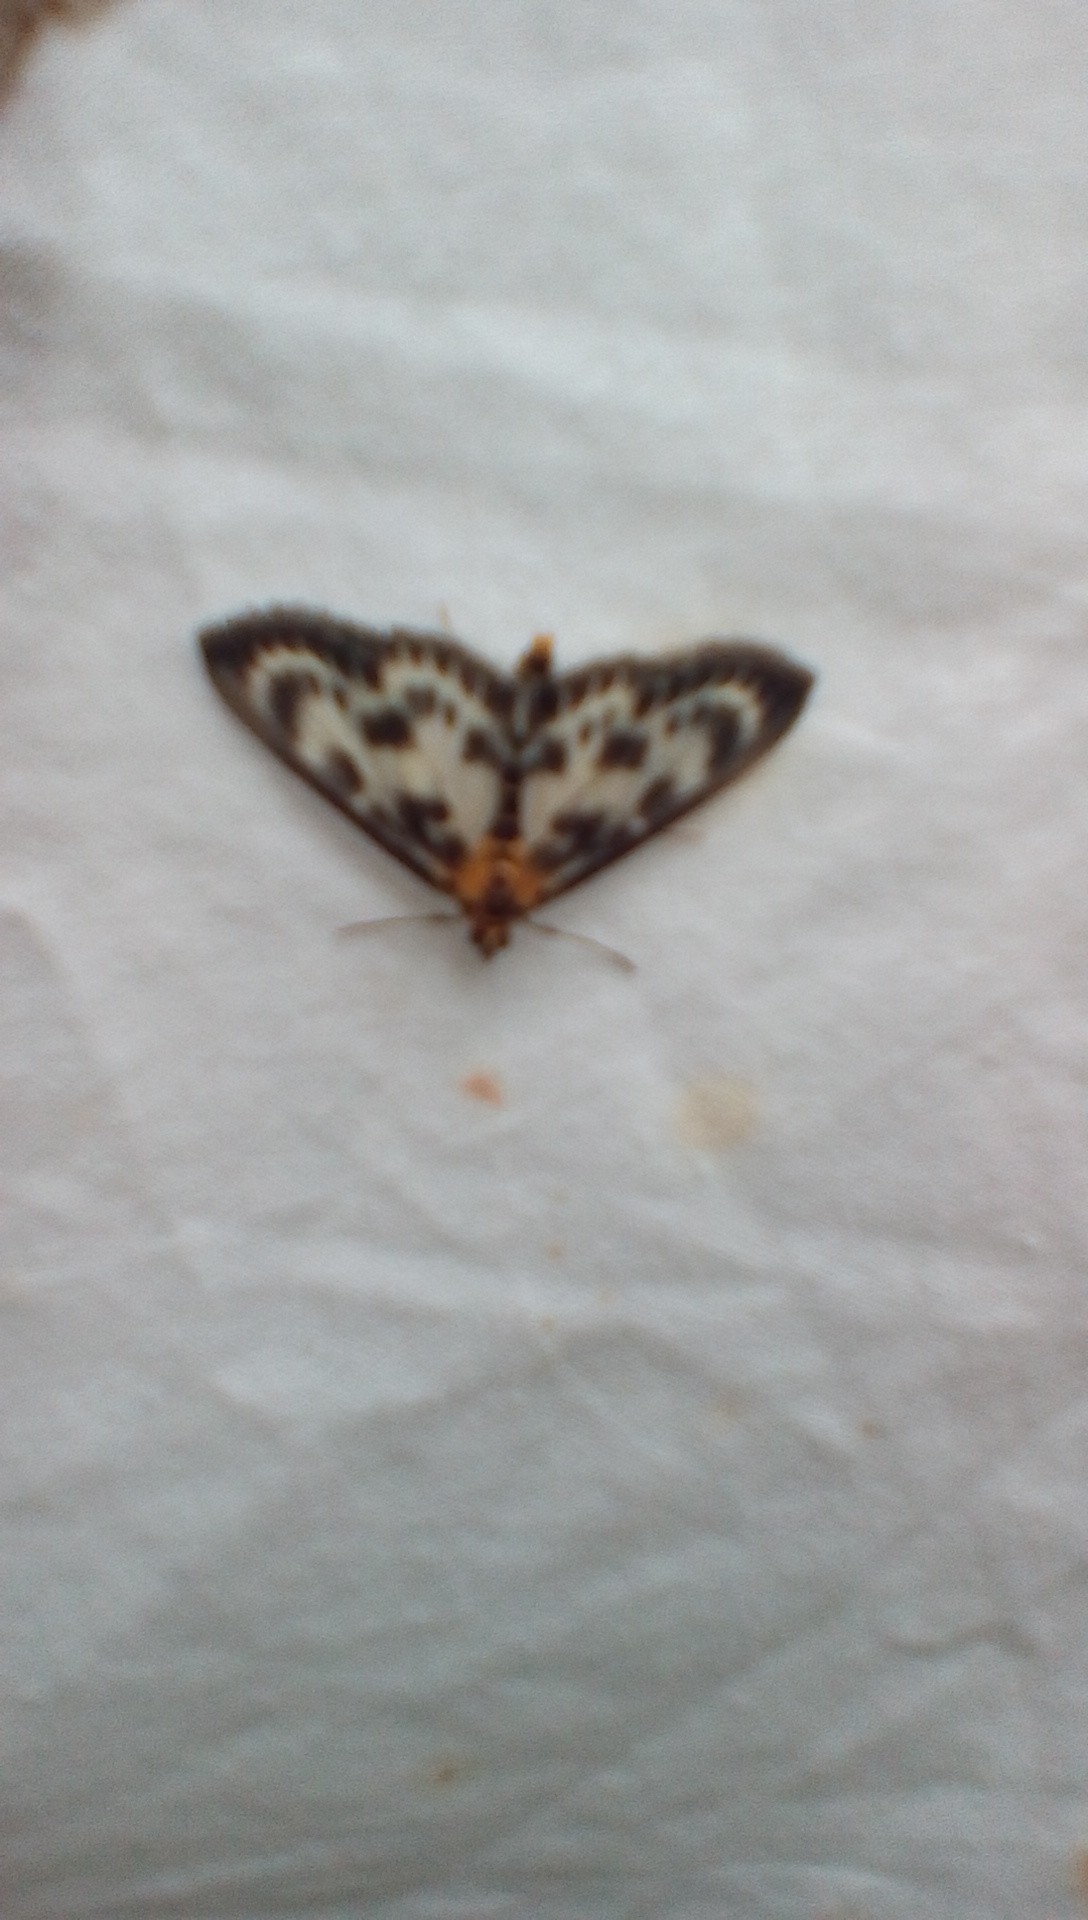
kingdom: Animalia
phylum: Arthropoda
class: Insecta
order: Lepidoptera
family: Crambidae
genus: Anania
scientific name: Anania hortulata
